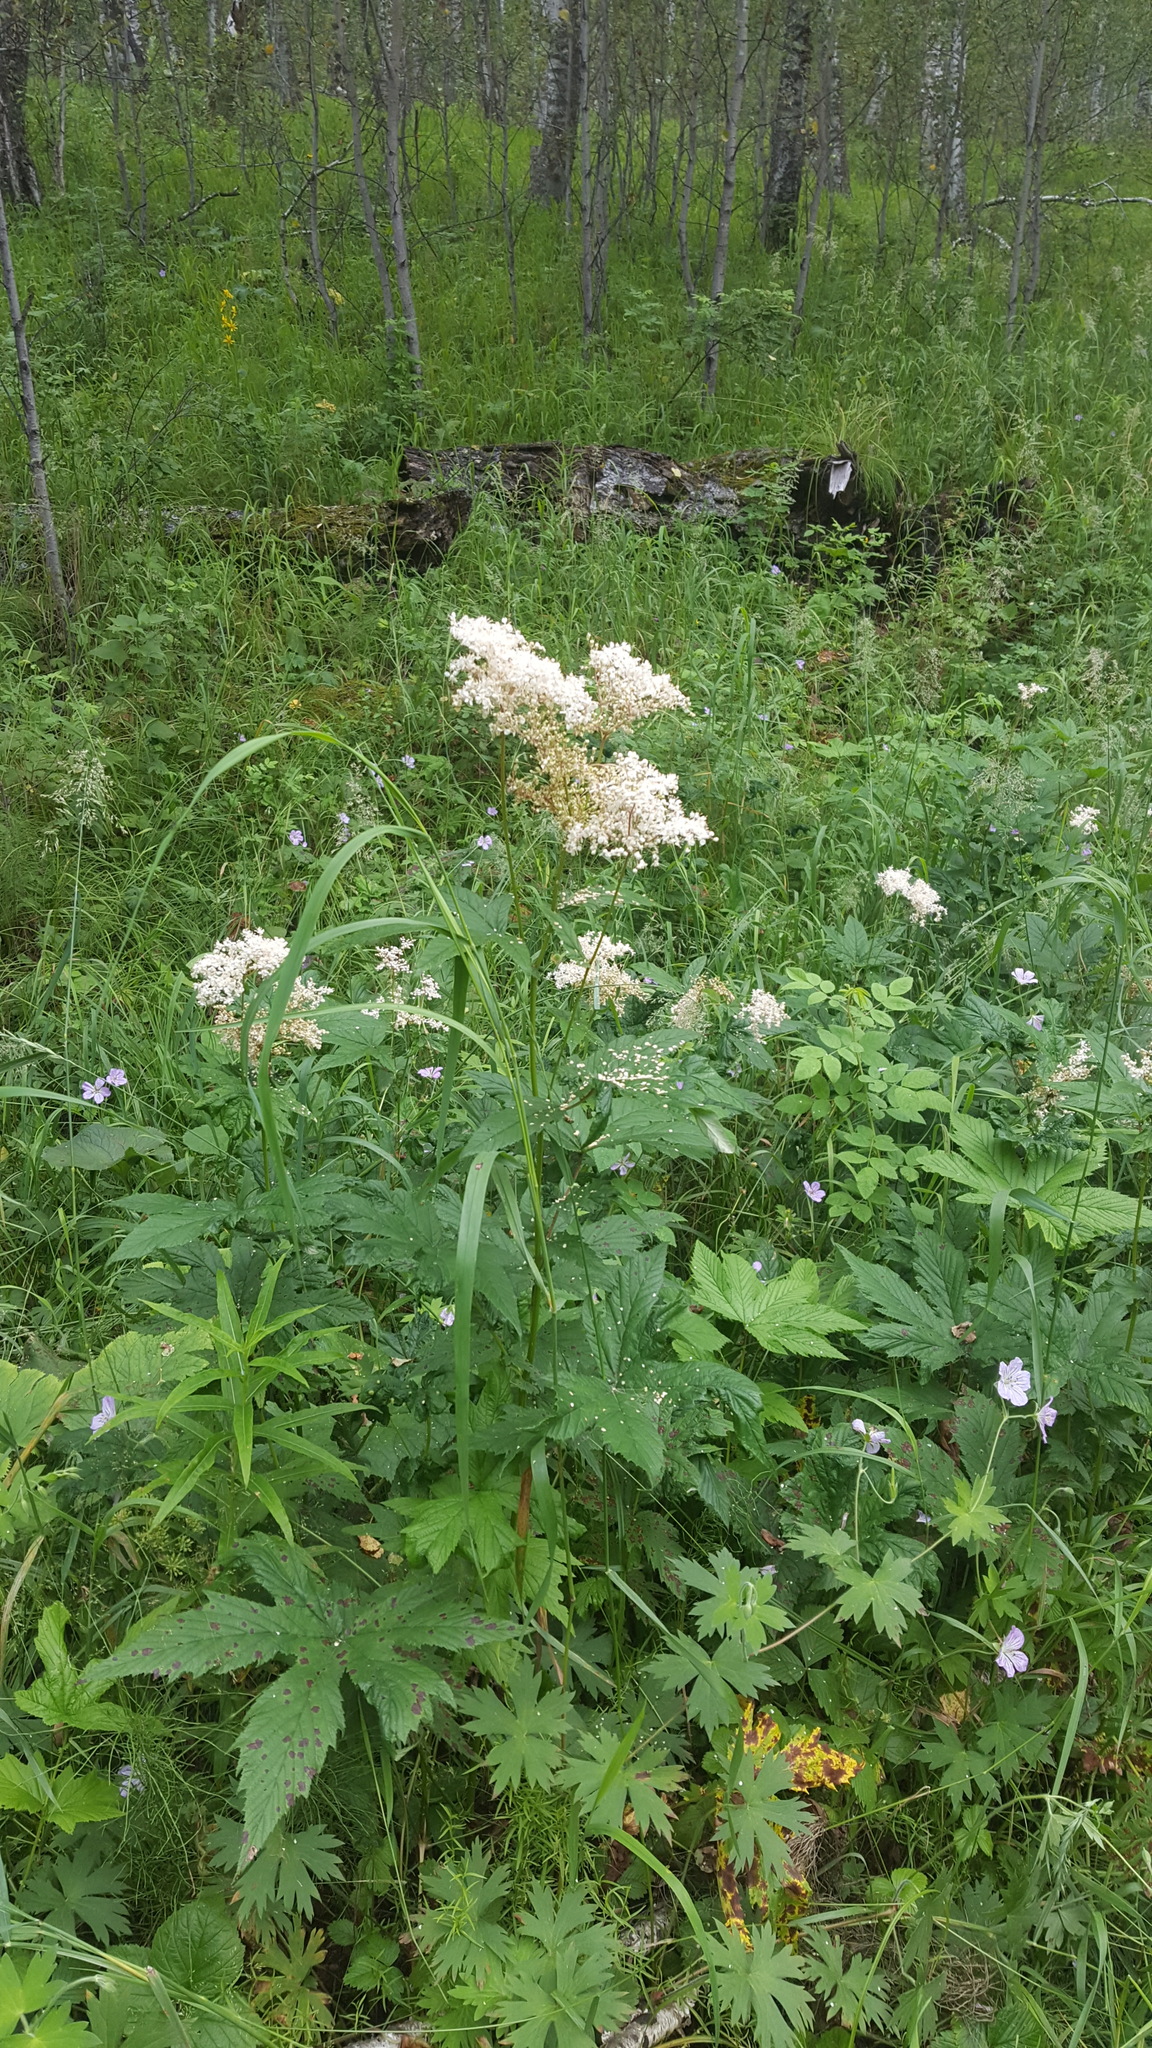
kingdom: Plantae
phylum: Tracheophyta
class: Magnoliopsida
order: Rosales
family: Rosaceae
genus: Filipendula
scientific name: Filipendula digitata
